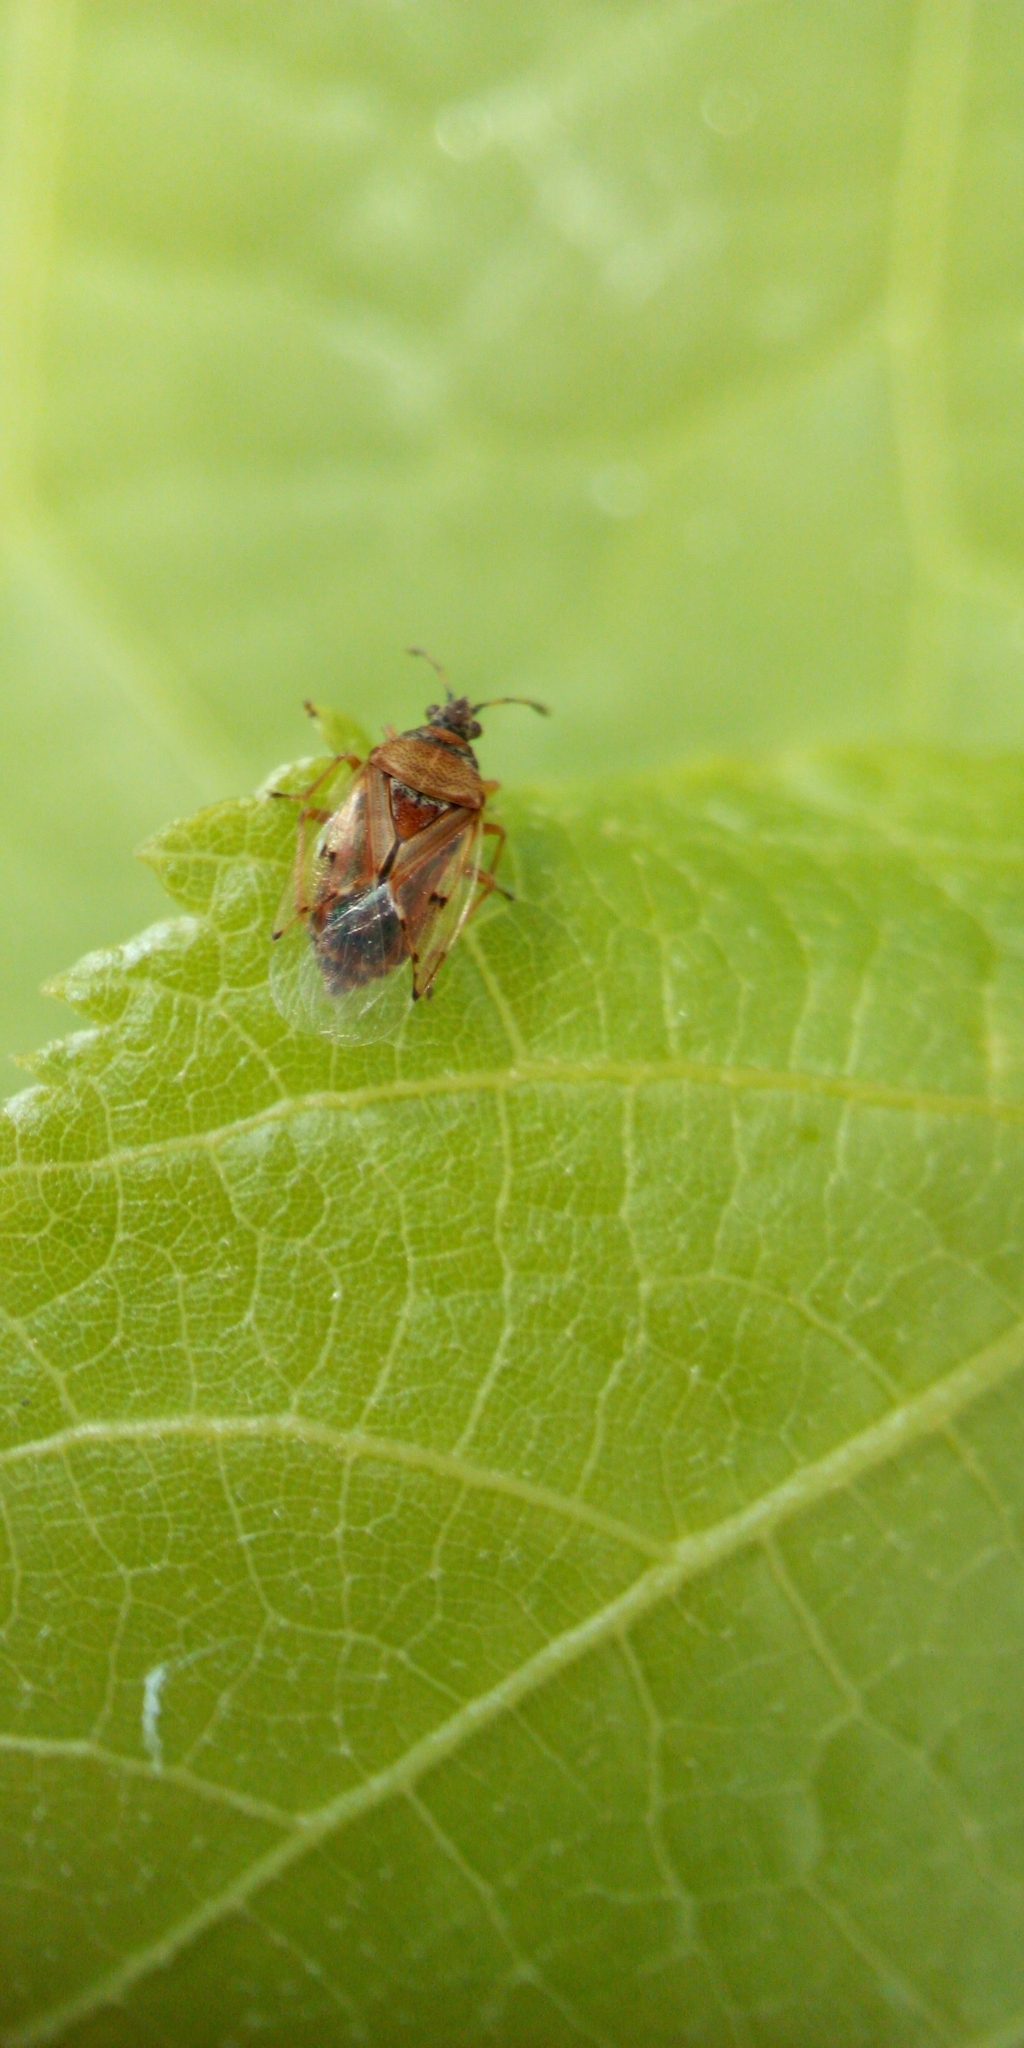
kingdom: Animalia
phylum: Arthropoda
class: Insecta
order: Hemiptera
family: Lygaeidae
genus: Kleidocerys
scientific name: Kleidocerys resedae
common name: Birch catkin bug
